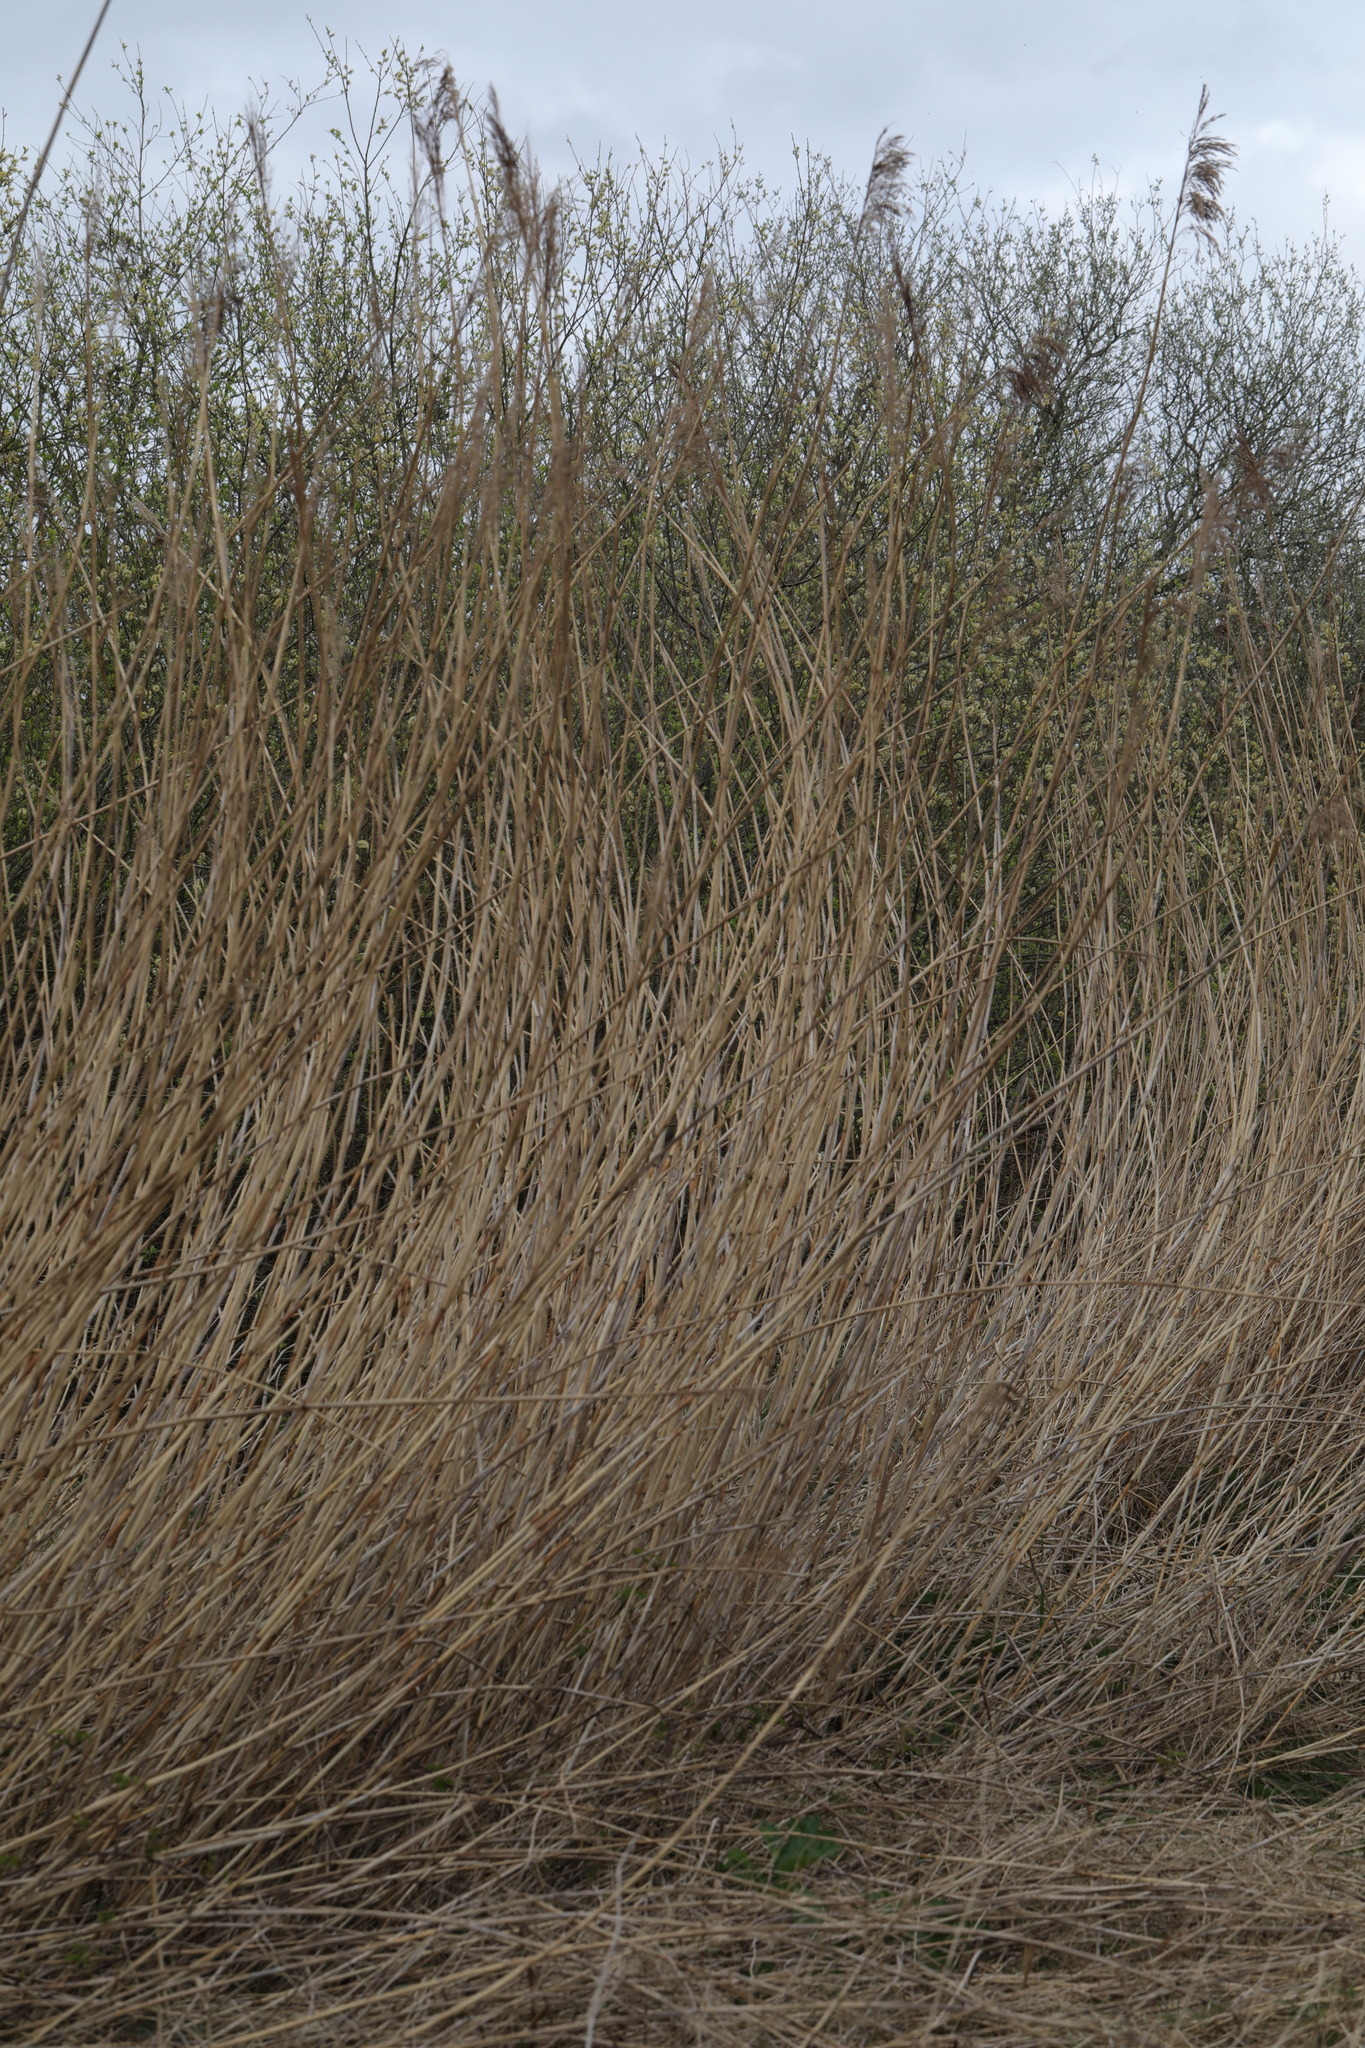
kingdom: Plantae
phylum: Tracheophyta
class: Liliopsida
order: Poales
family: Poaceae
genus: Phragmites
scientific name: Phragmites australis
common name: Common reed
